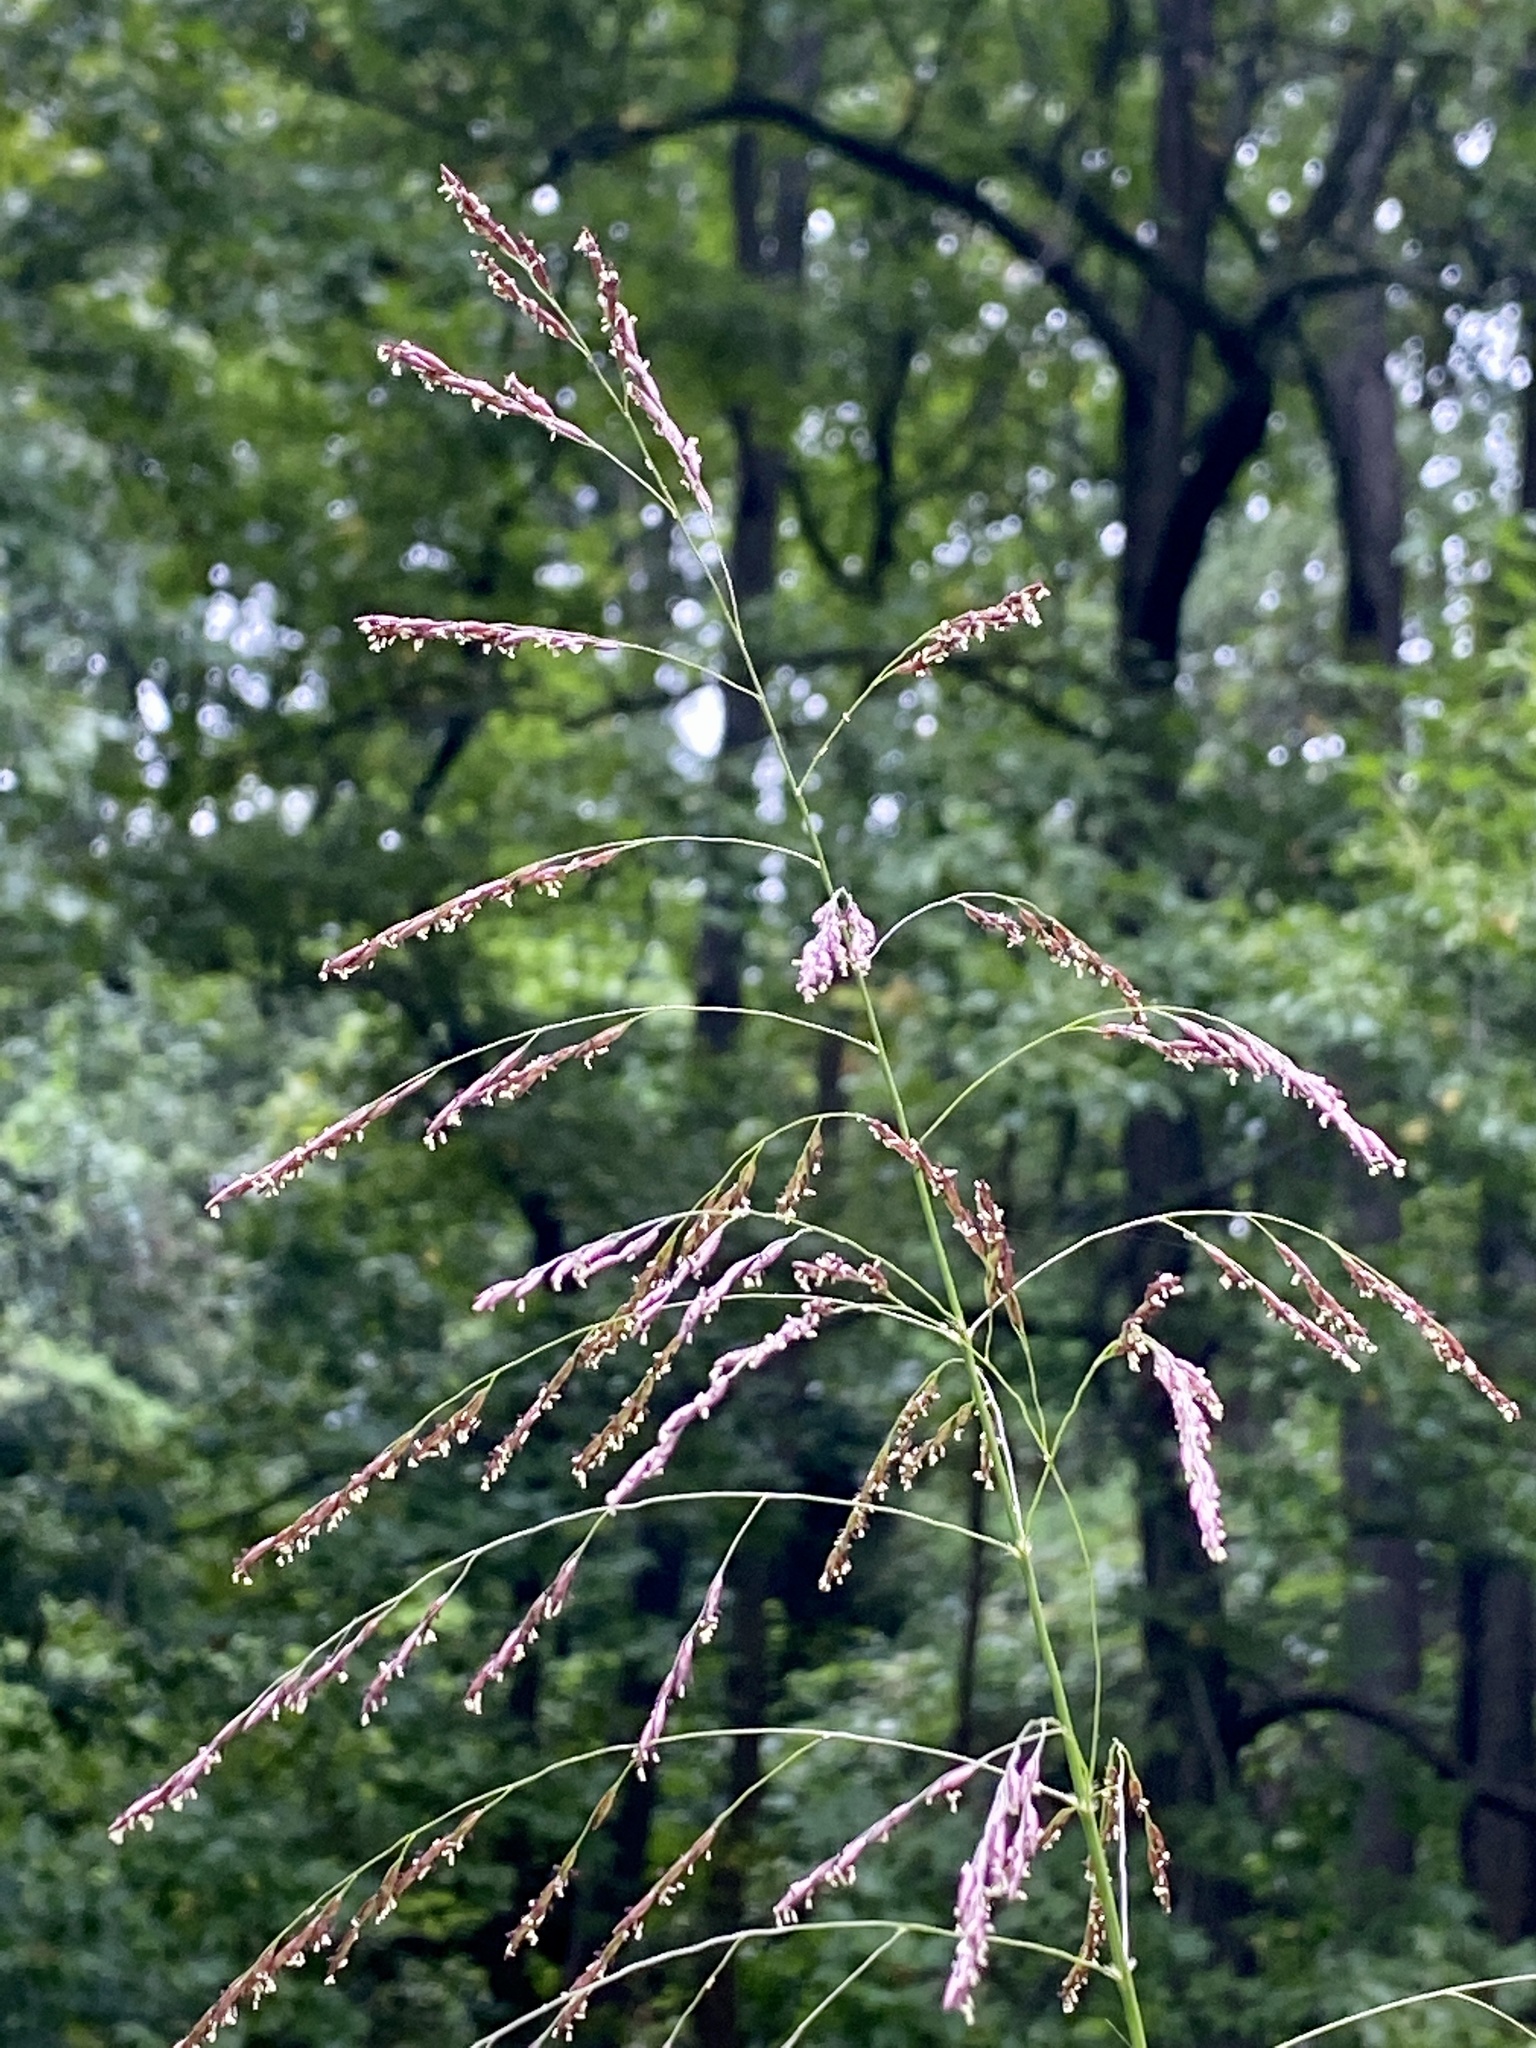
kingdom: Plantae
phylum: Tracheophyta
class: Liliopsida
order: Poales
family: Poaceae
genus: Tridens
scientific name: Tridens flavus
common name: Purpletop
